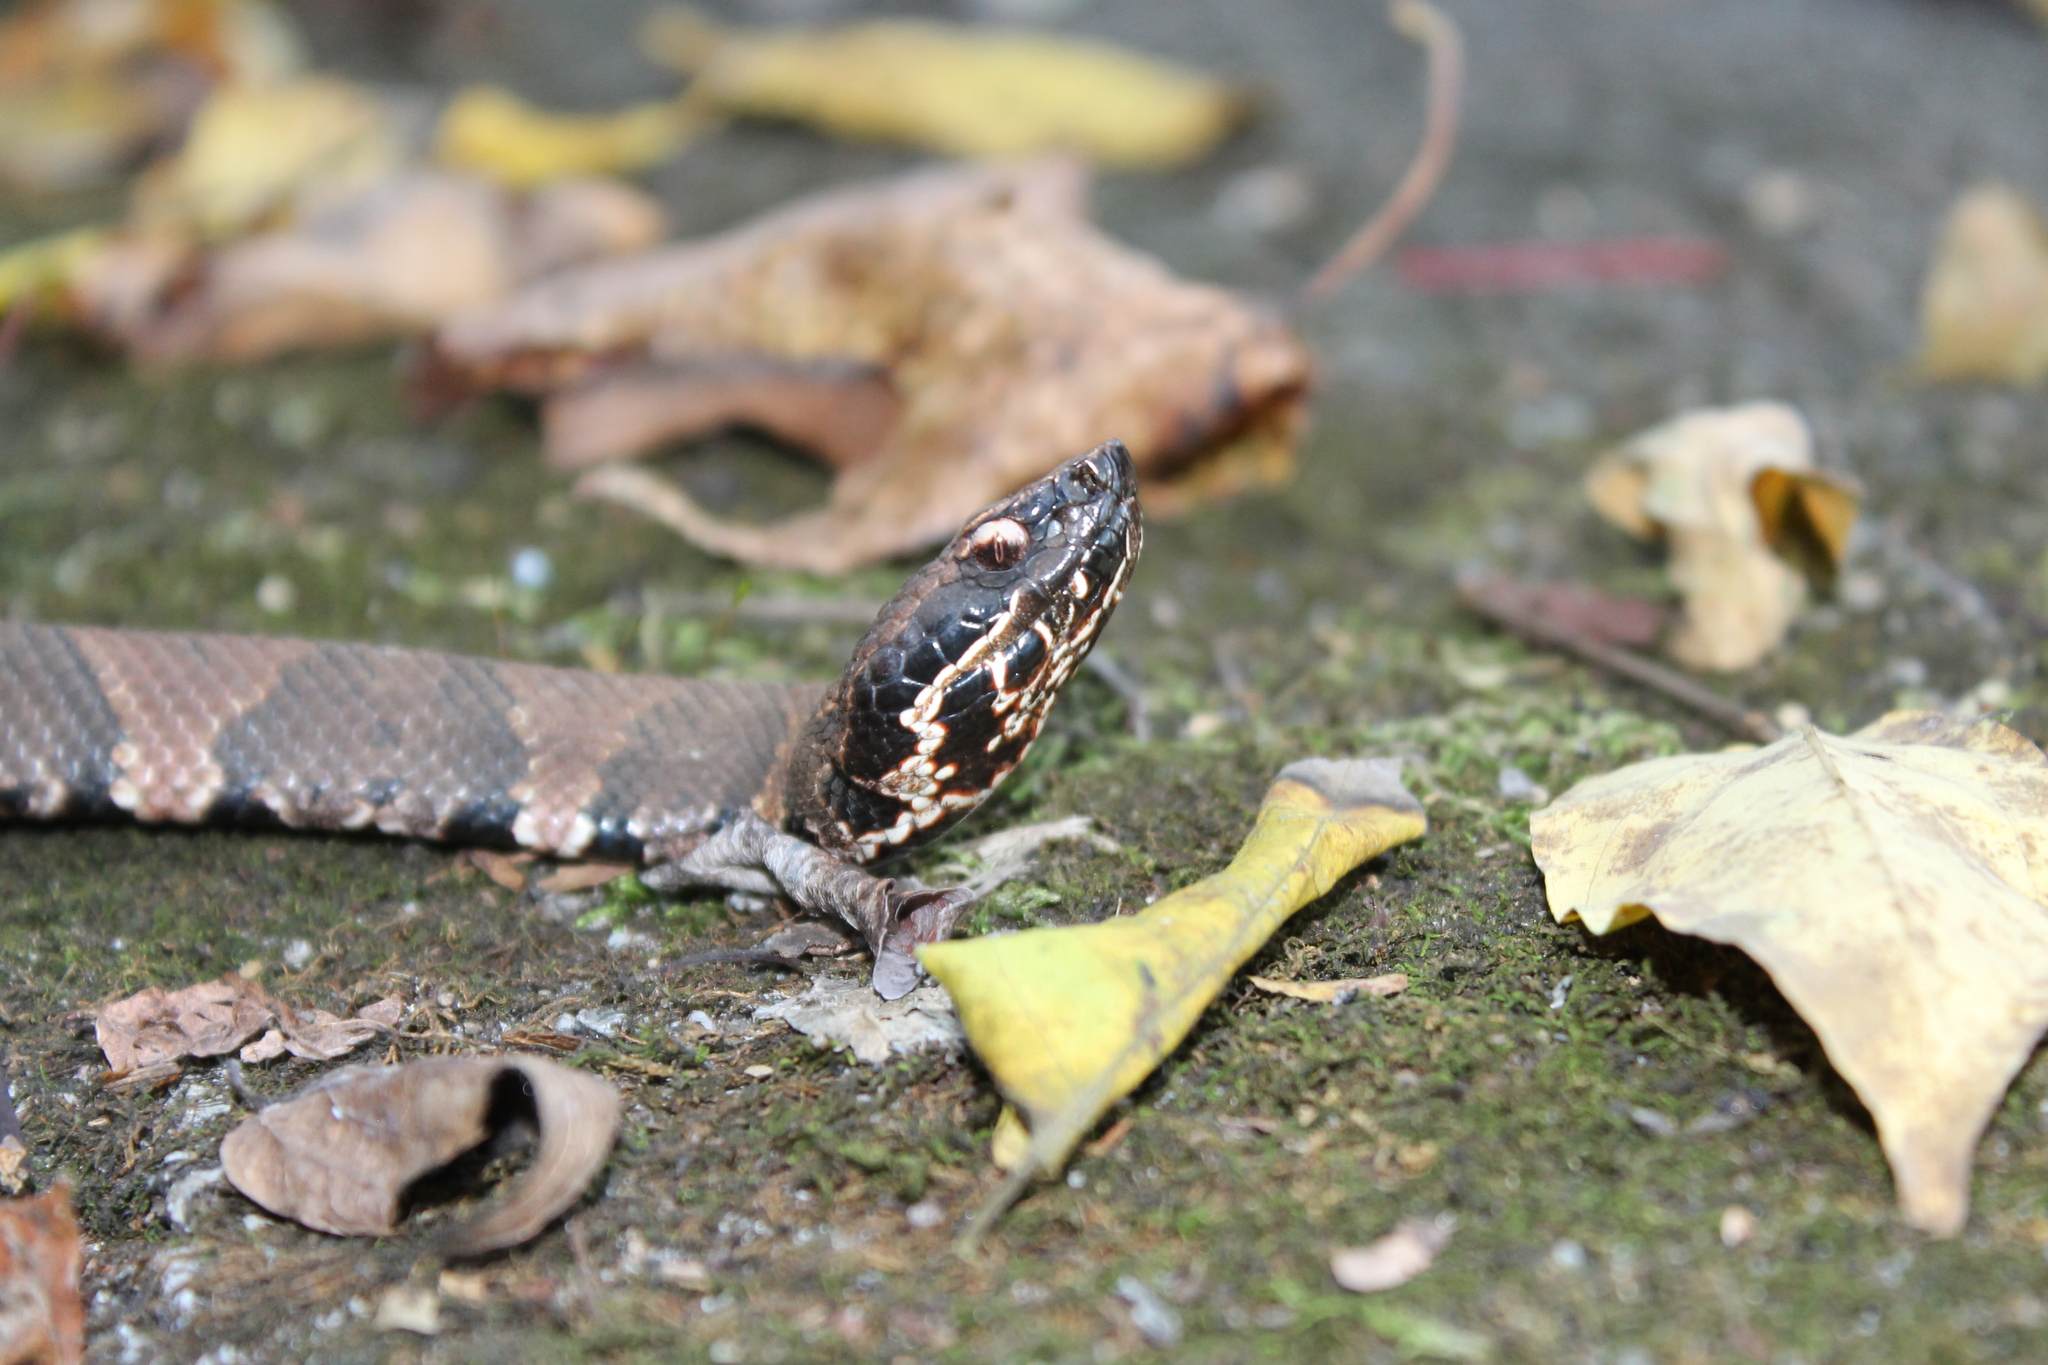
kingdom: Animalia
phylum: Chordata
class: Squamata
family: Viperidae
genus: Agkistrodon
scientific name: Agkistrodon piscivorus
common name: Cottonmouth
